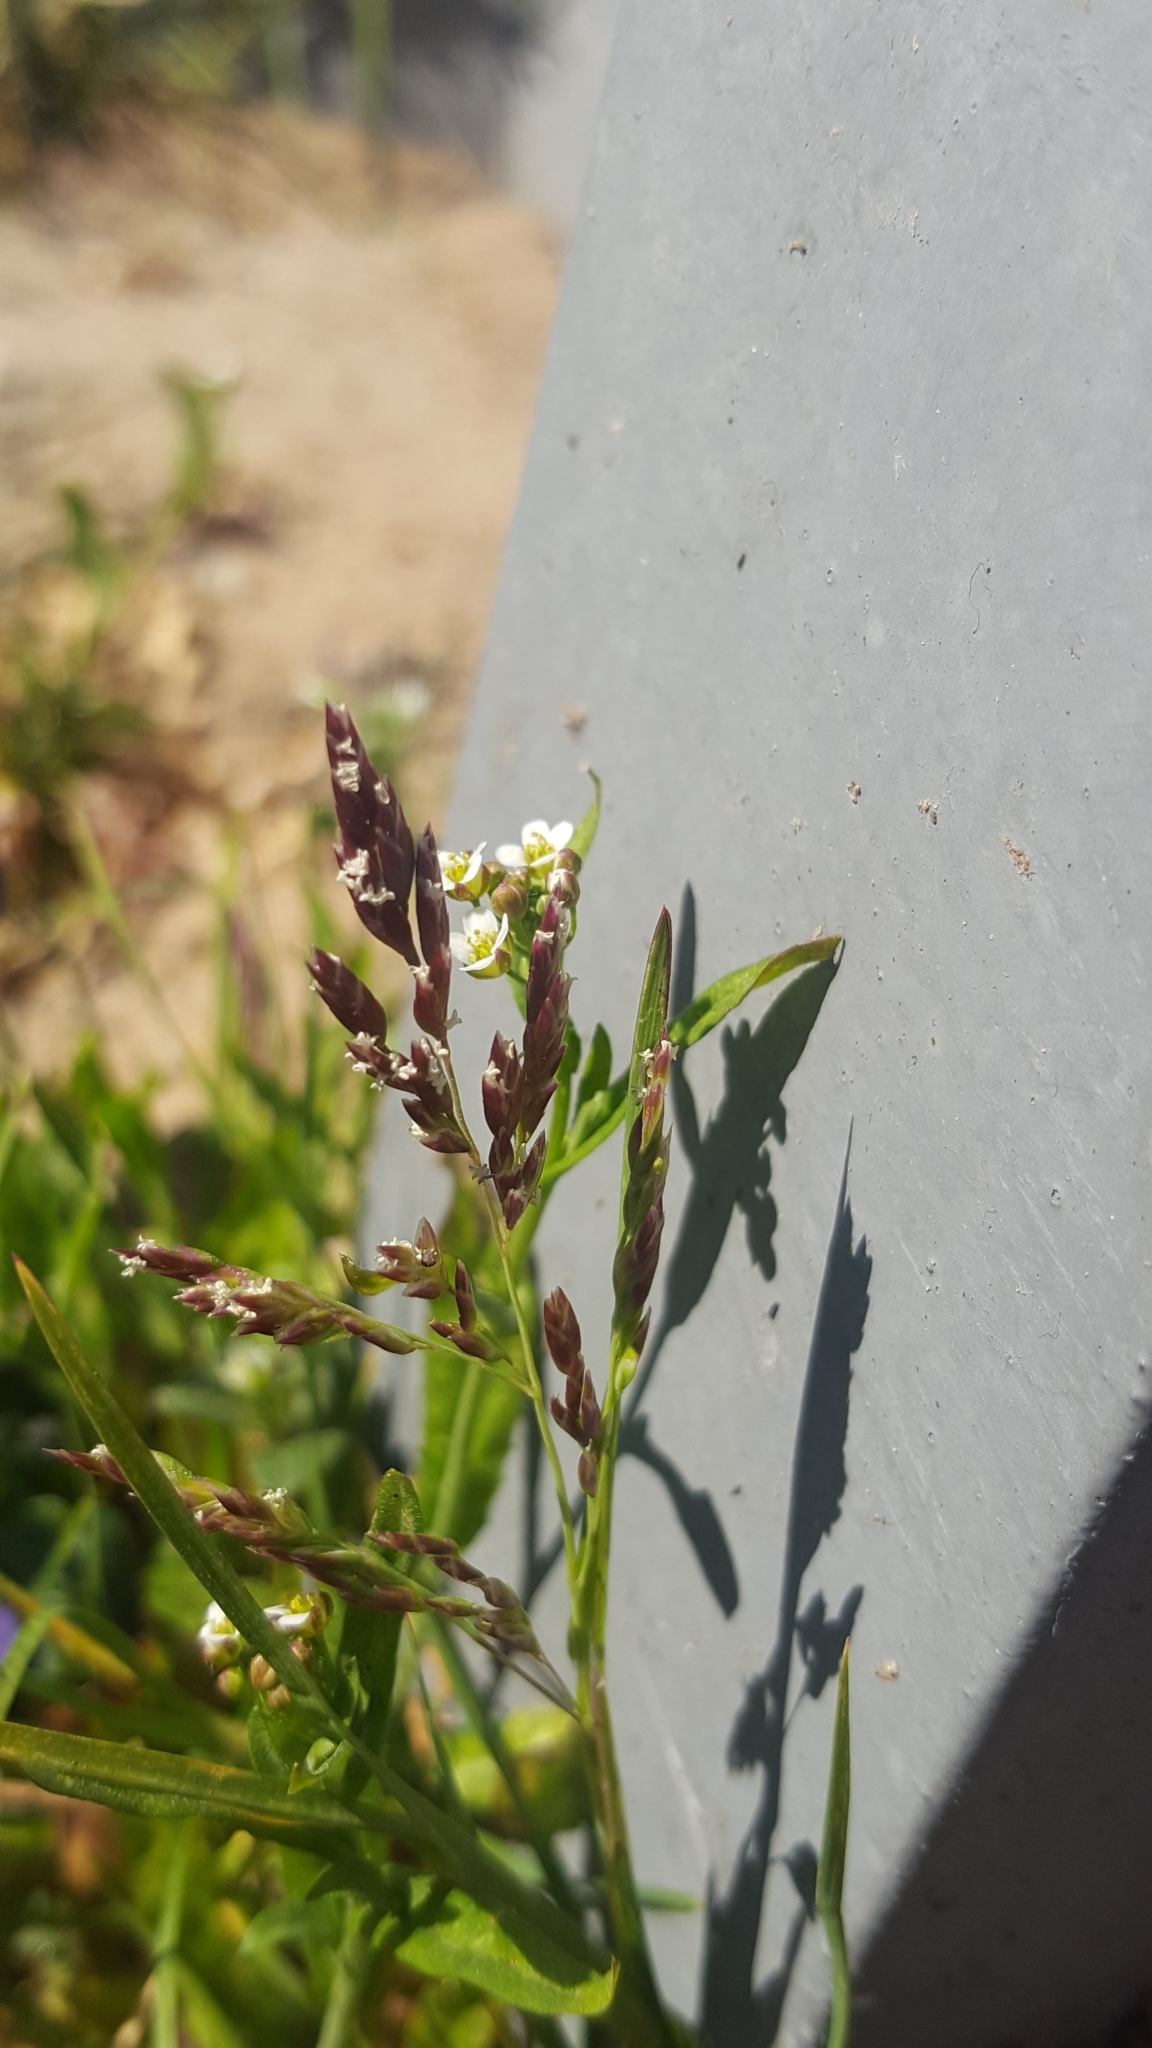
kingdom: Plantae
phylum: Tracheophyta
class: Liliopsida
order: Poales
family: Poaceae
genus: Poa
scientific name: Poa annua
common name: Annual bluegrass
